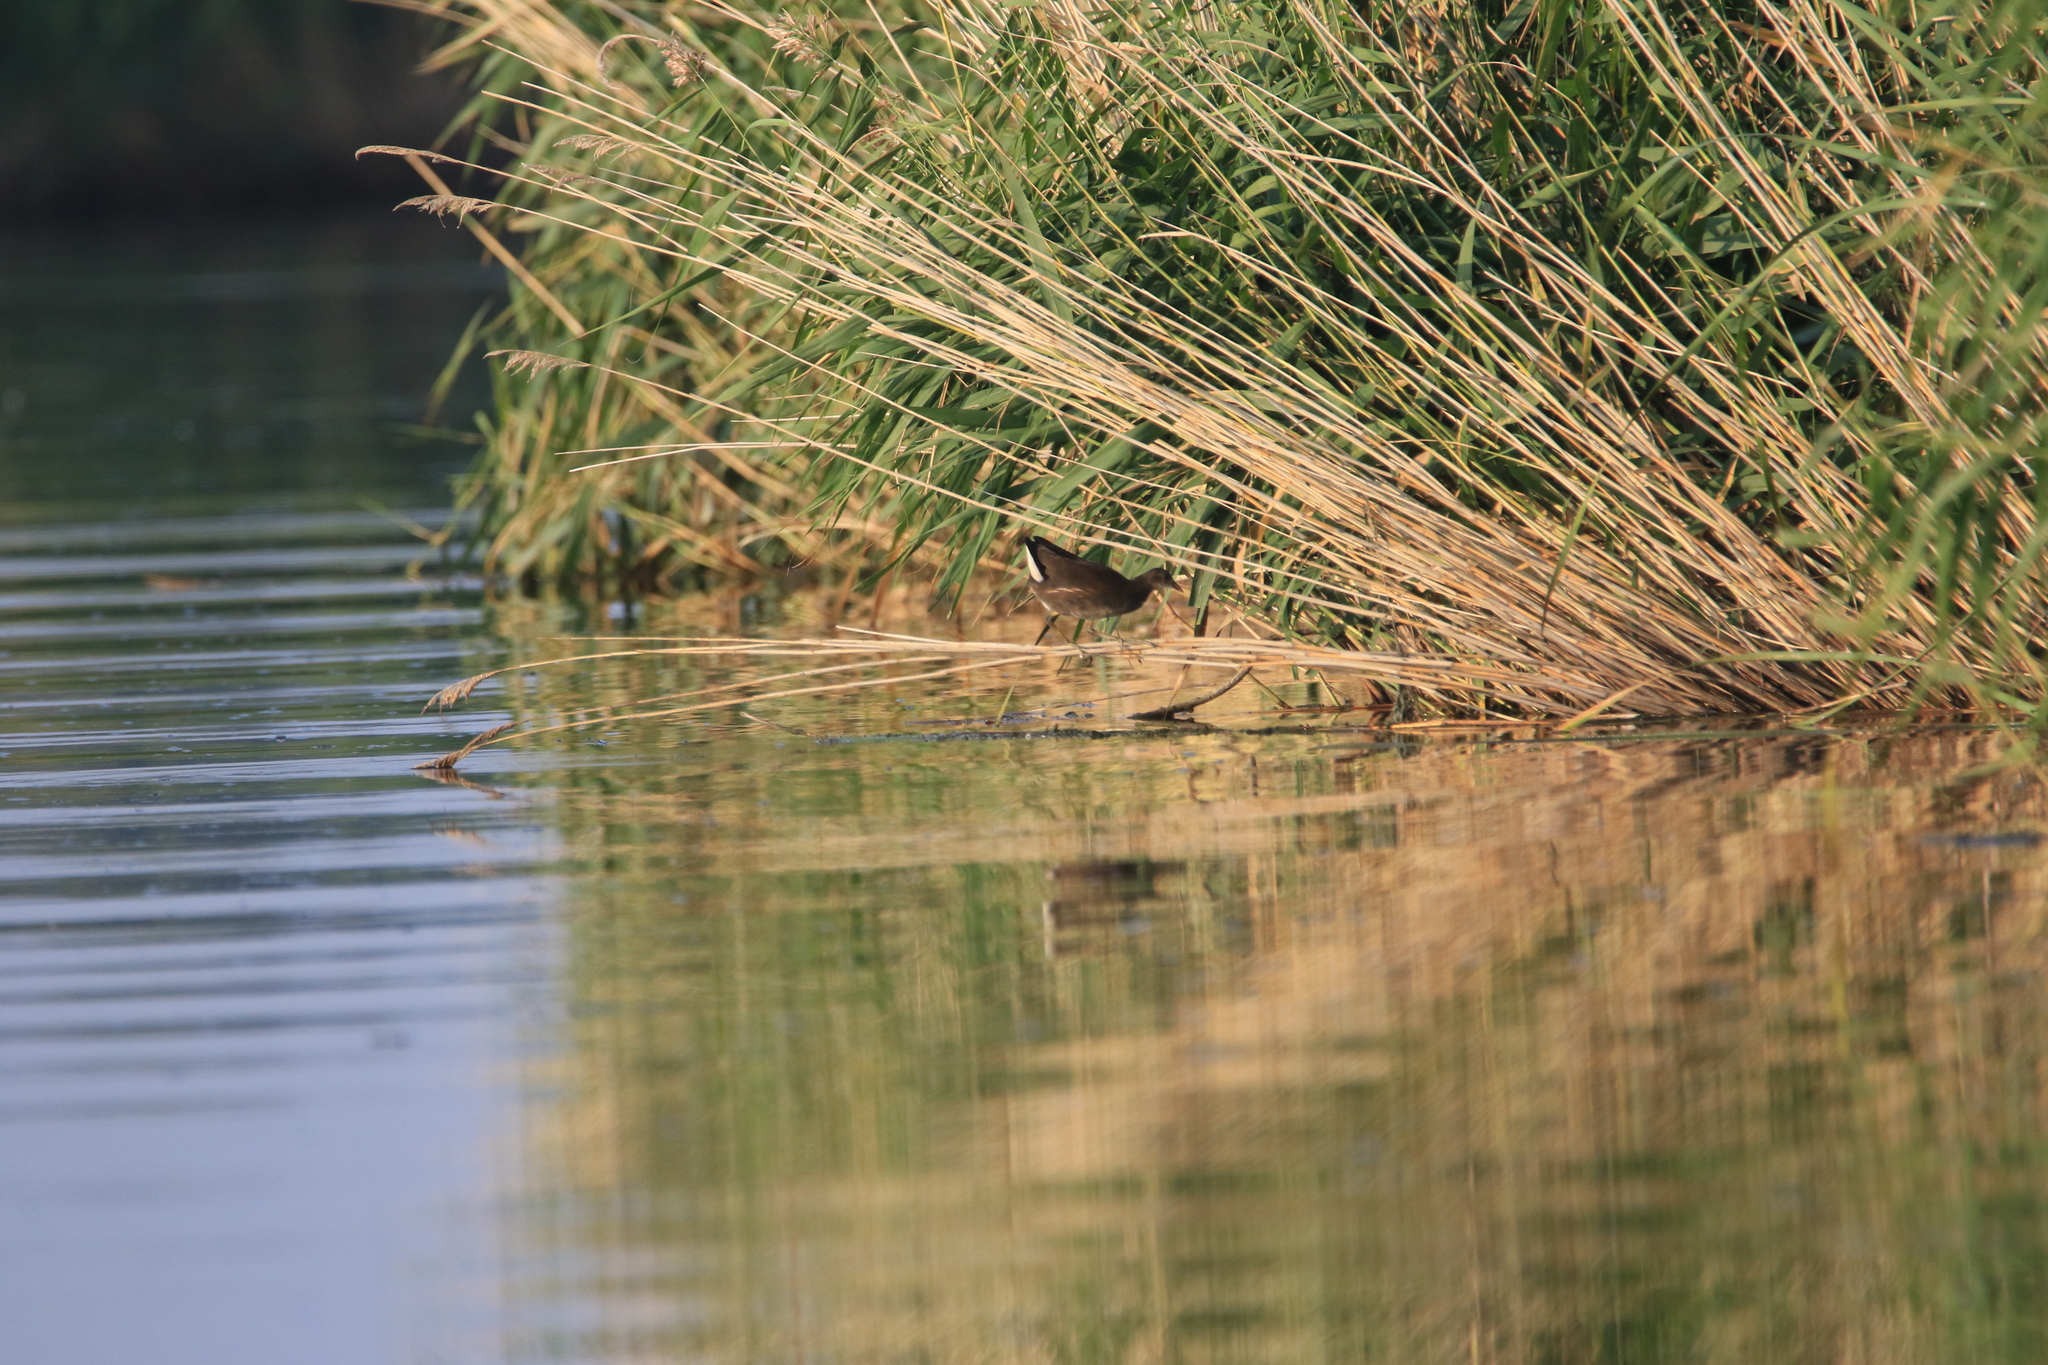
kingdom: Animalia
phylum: Chordata
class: Aves
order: Gruiformes
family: Rallidae
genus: Gallinula
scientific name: Gallinula chloropus
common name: Common moorhen
